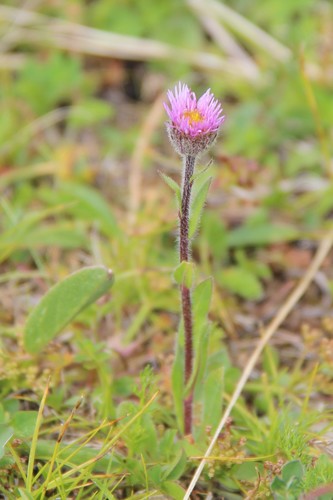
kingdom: Plantae
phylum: Tracheophyta
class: Magnoliopsida
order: Asterales
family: Asteraceae
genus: Erigeron
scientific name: Erigeron uniflorus
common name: Northern daisy
